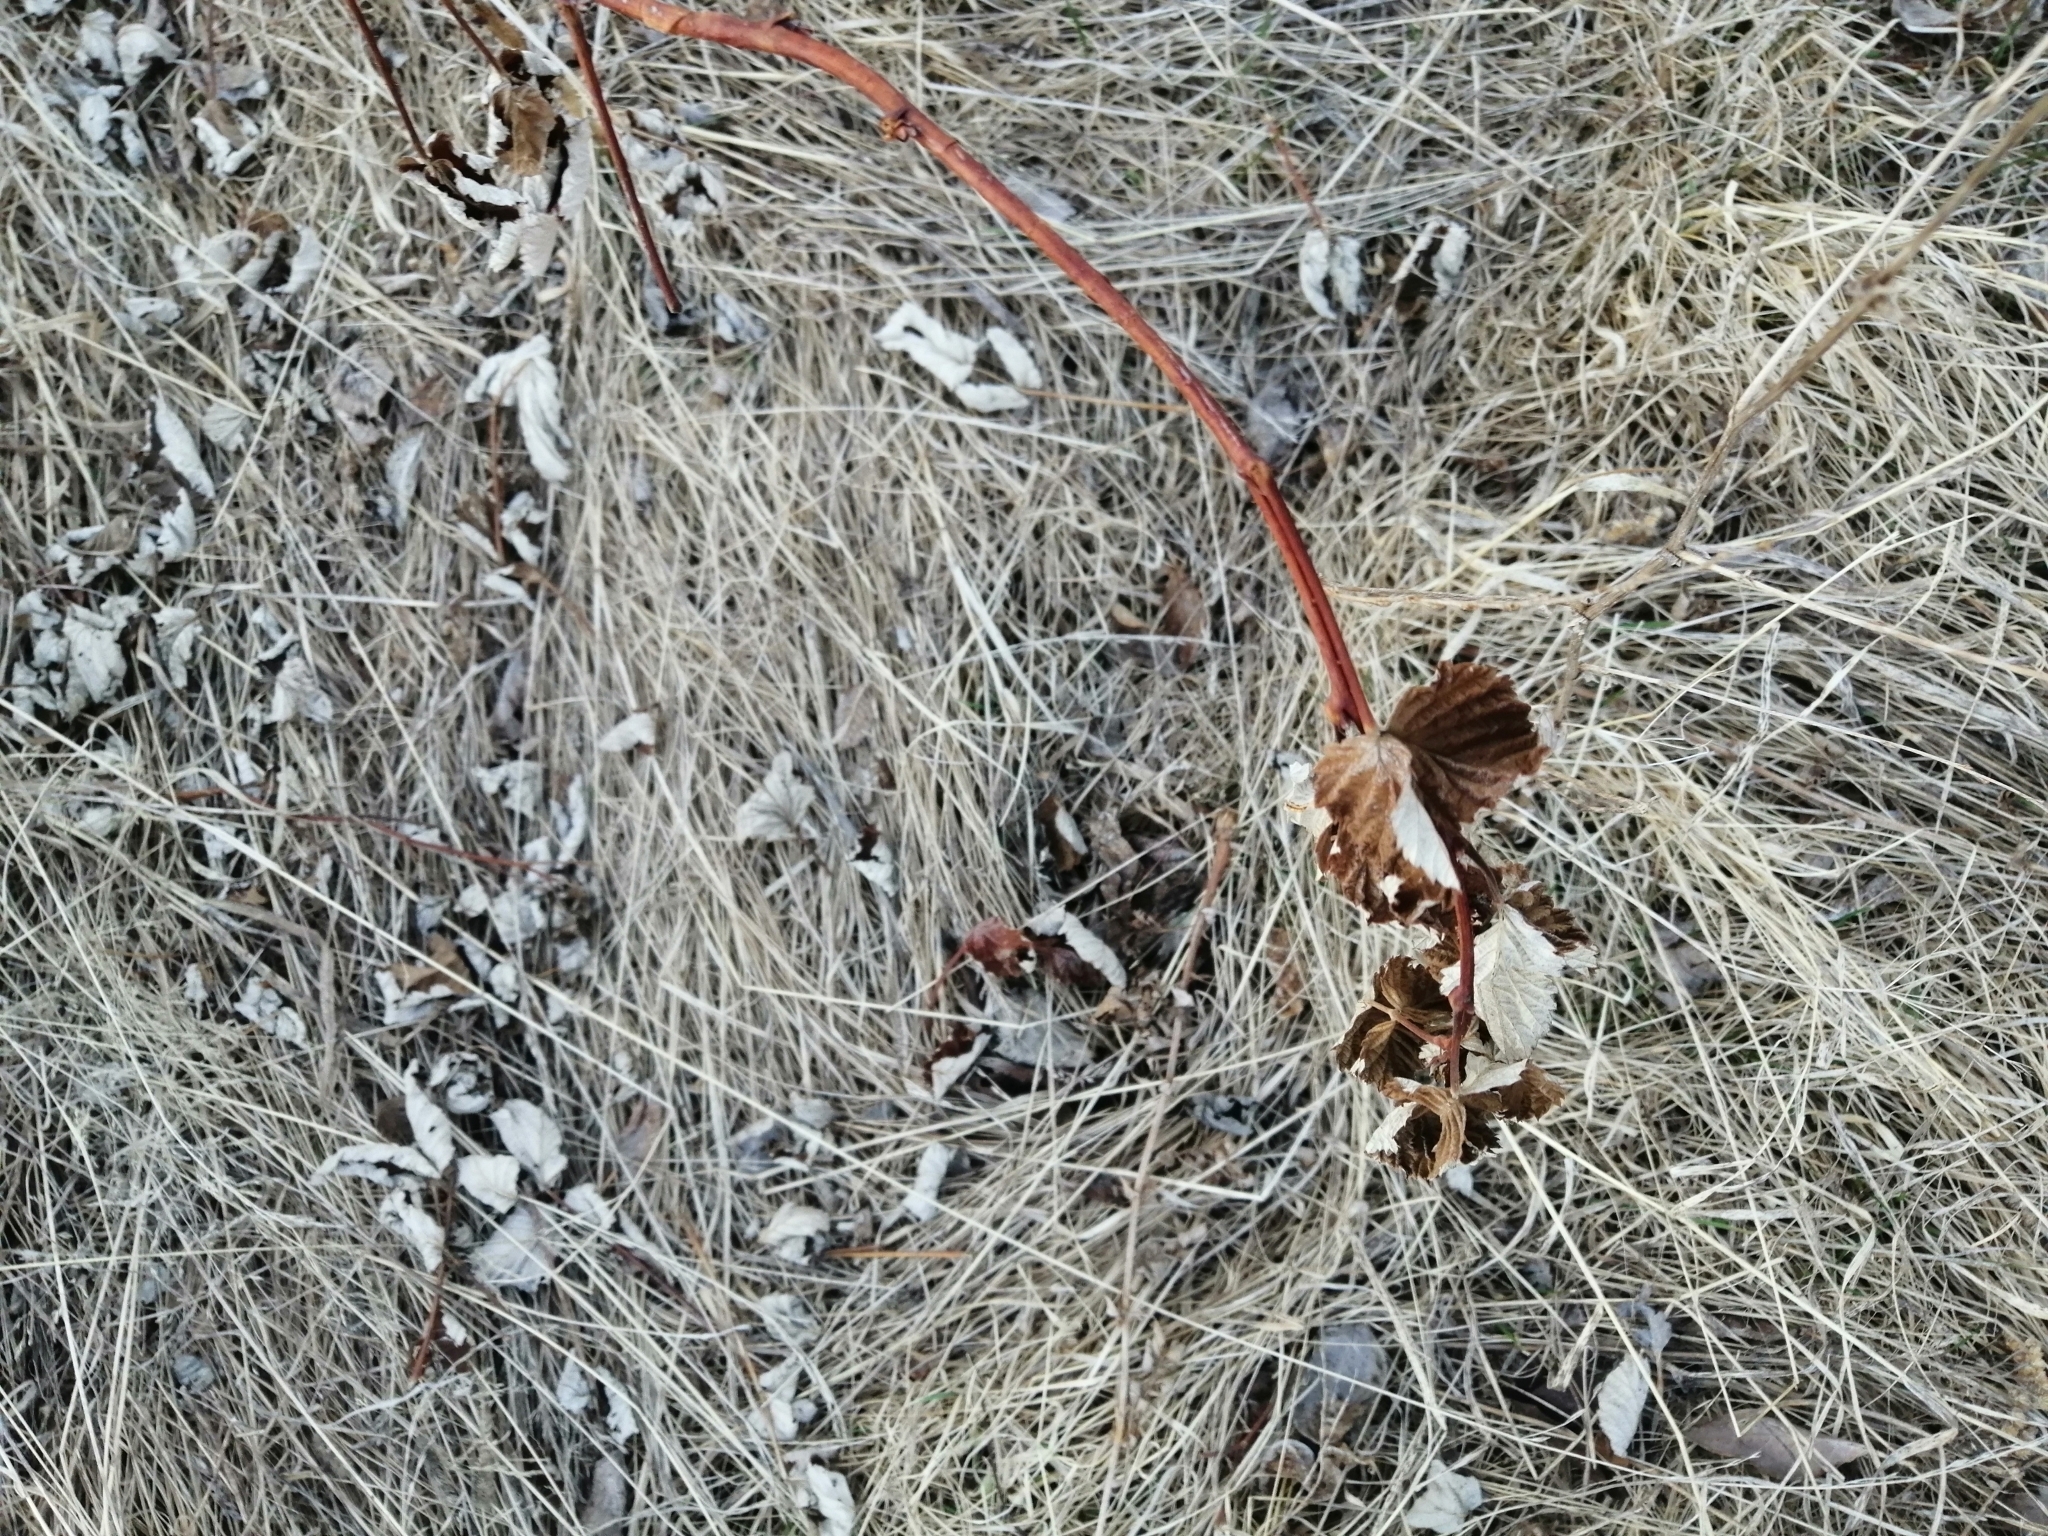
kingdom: Plantae
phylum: Tracheophyta
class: Magnoliopsida
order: Rosales
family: Rosaceae
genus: Rubus
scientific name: Rubus idaeus
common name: Raspberry
